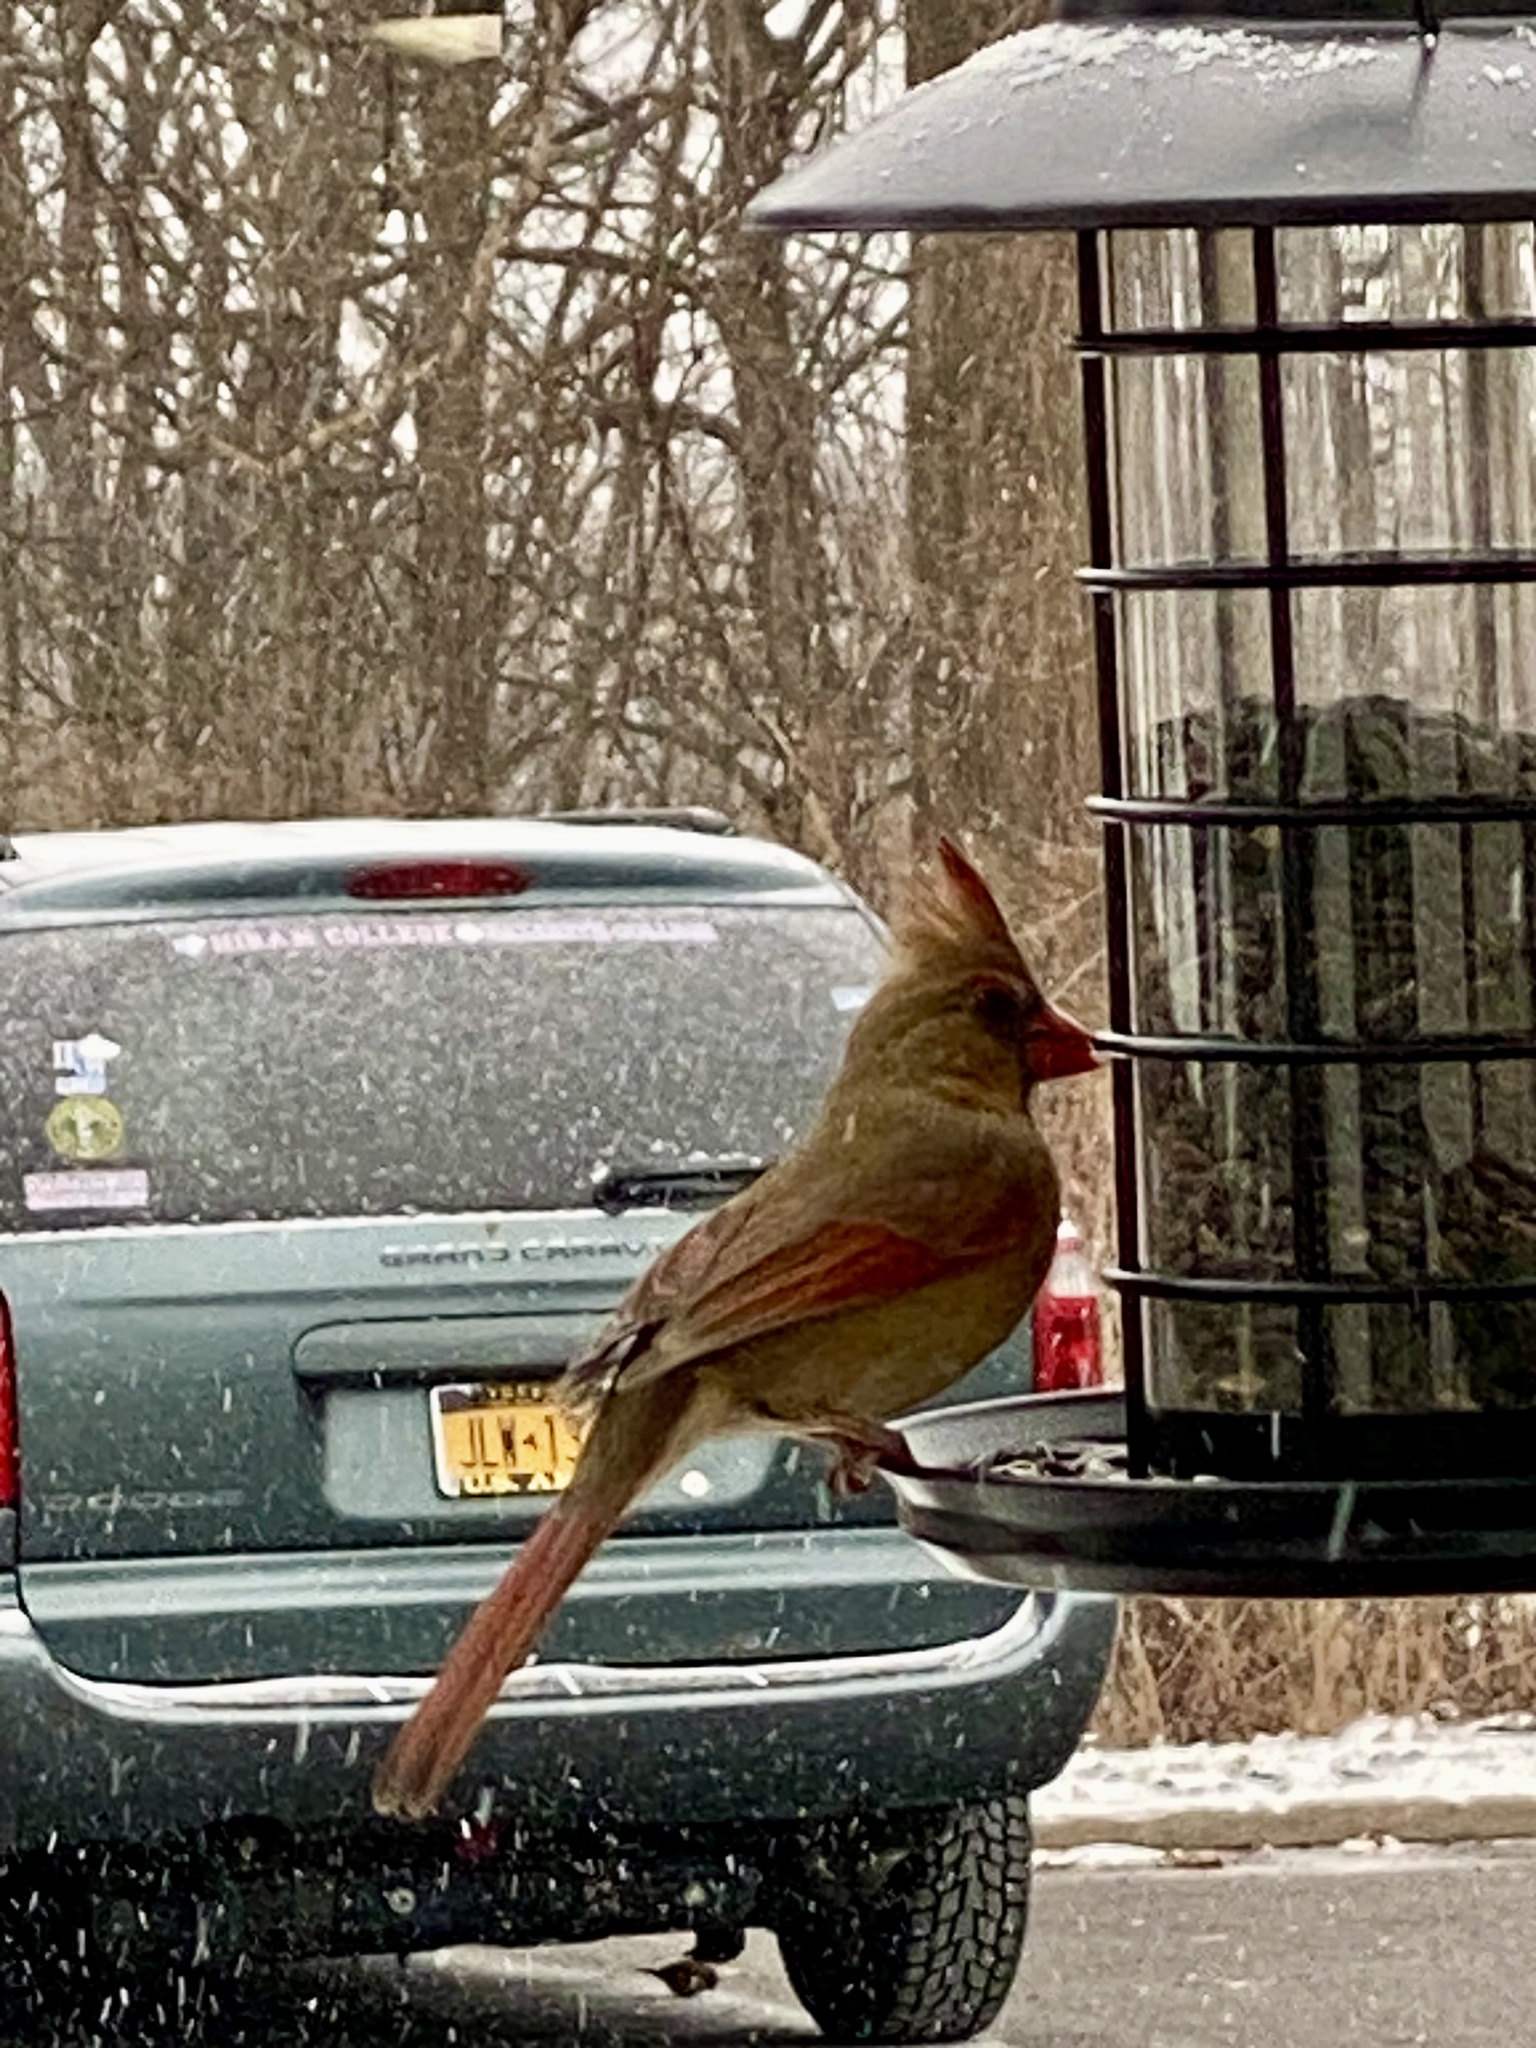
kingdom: Animalia
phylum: Chordata
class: Aves
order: Passeriformes
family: Cardinalidae
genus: Cardinalis
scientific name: Cardinalis cardinalis
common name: Northern cardinal
